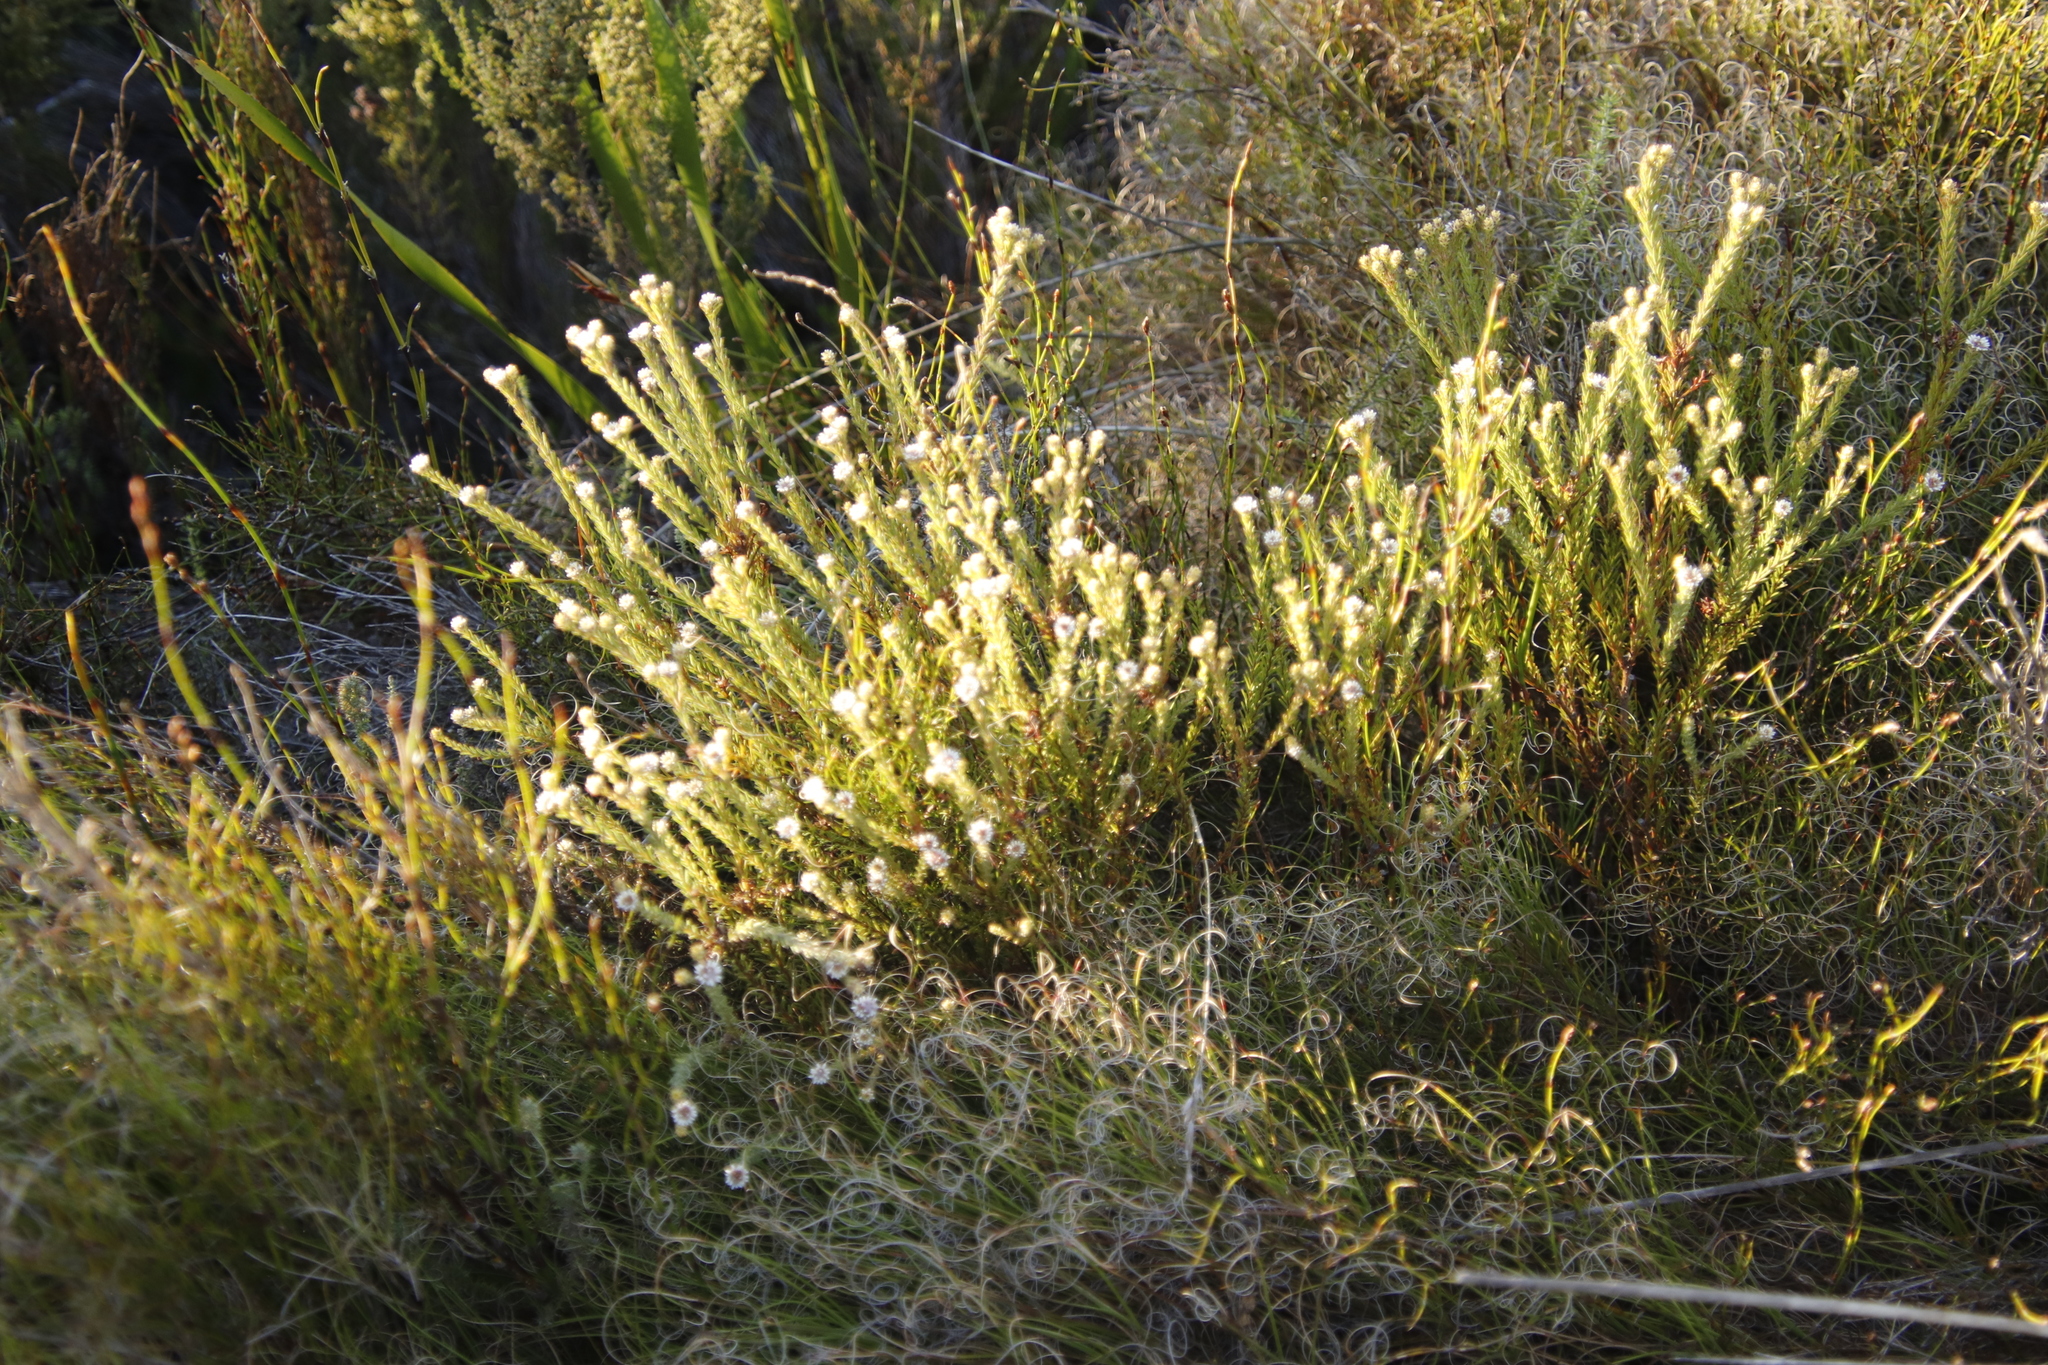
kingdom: Plantae
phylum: Tracheophyta
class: Magnoliopsida
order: Bruniales
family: Bruniaceae
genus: Staavia
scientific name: Staavia radiata
